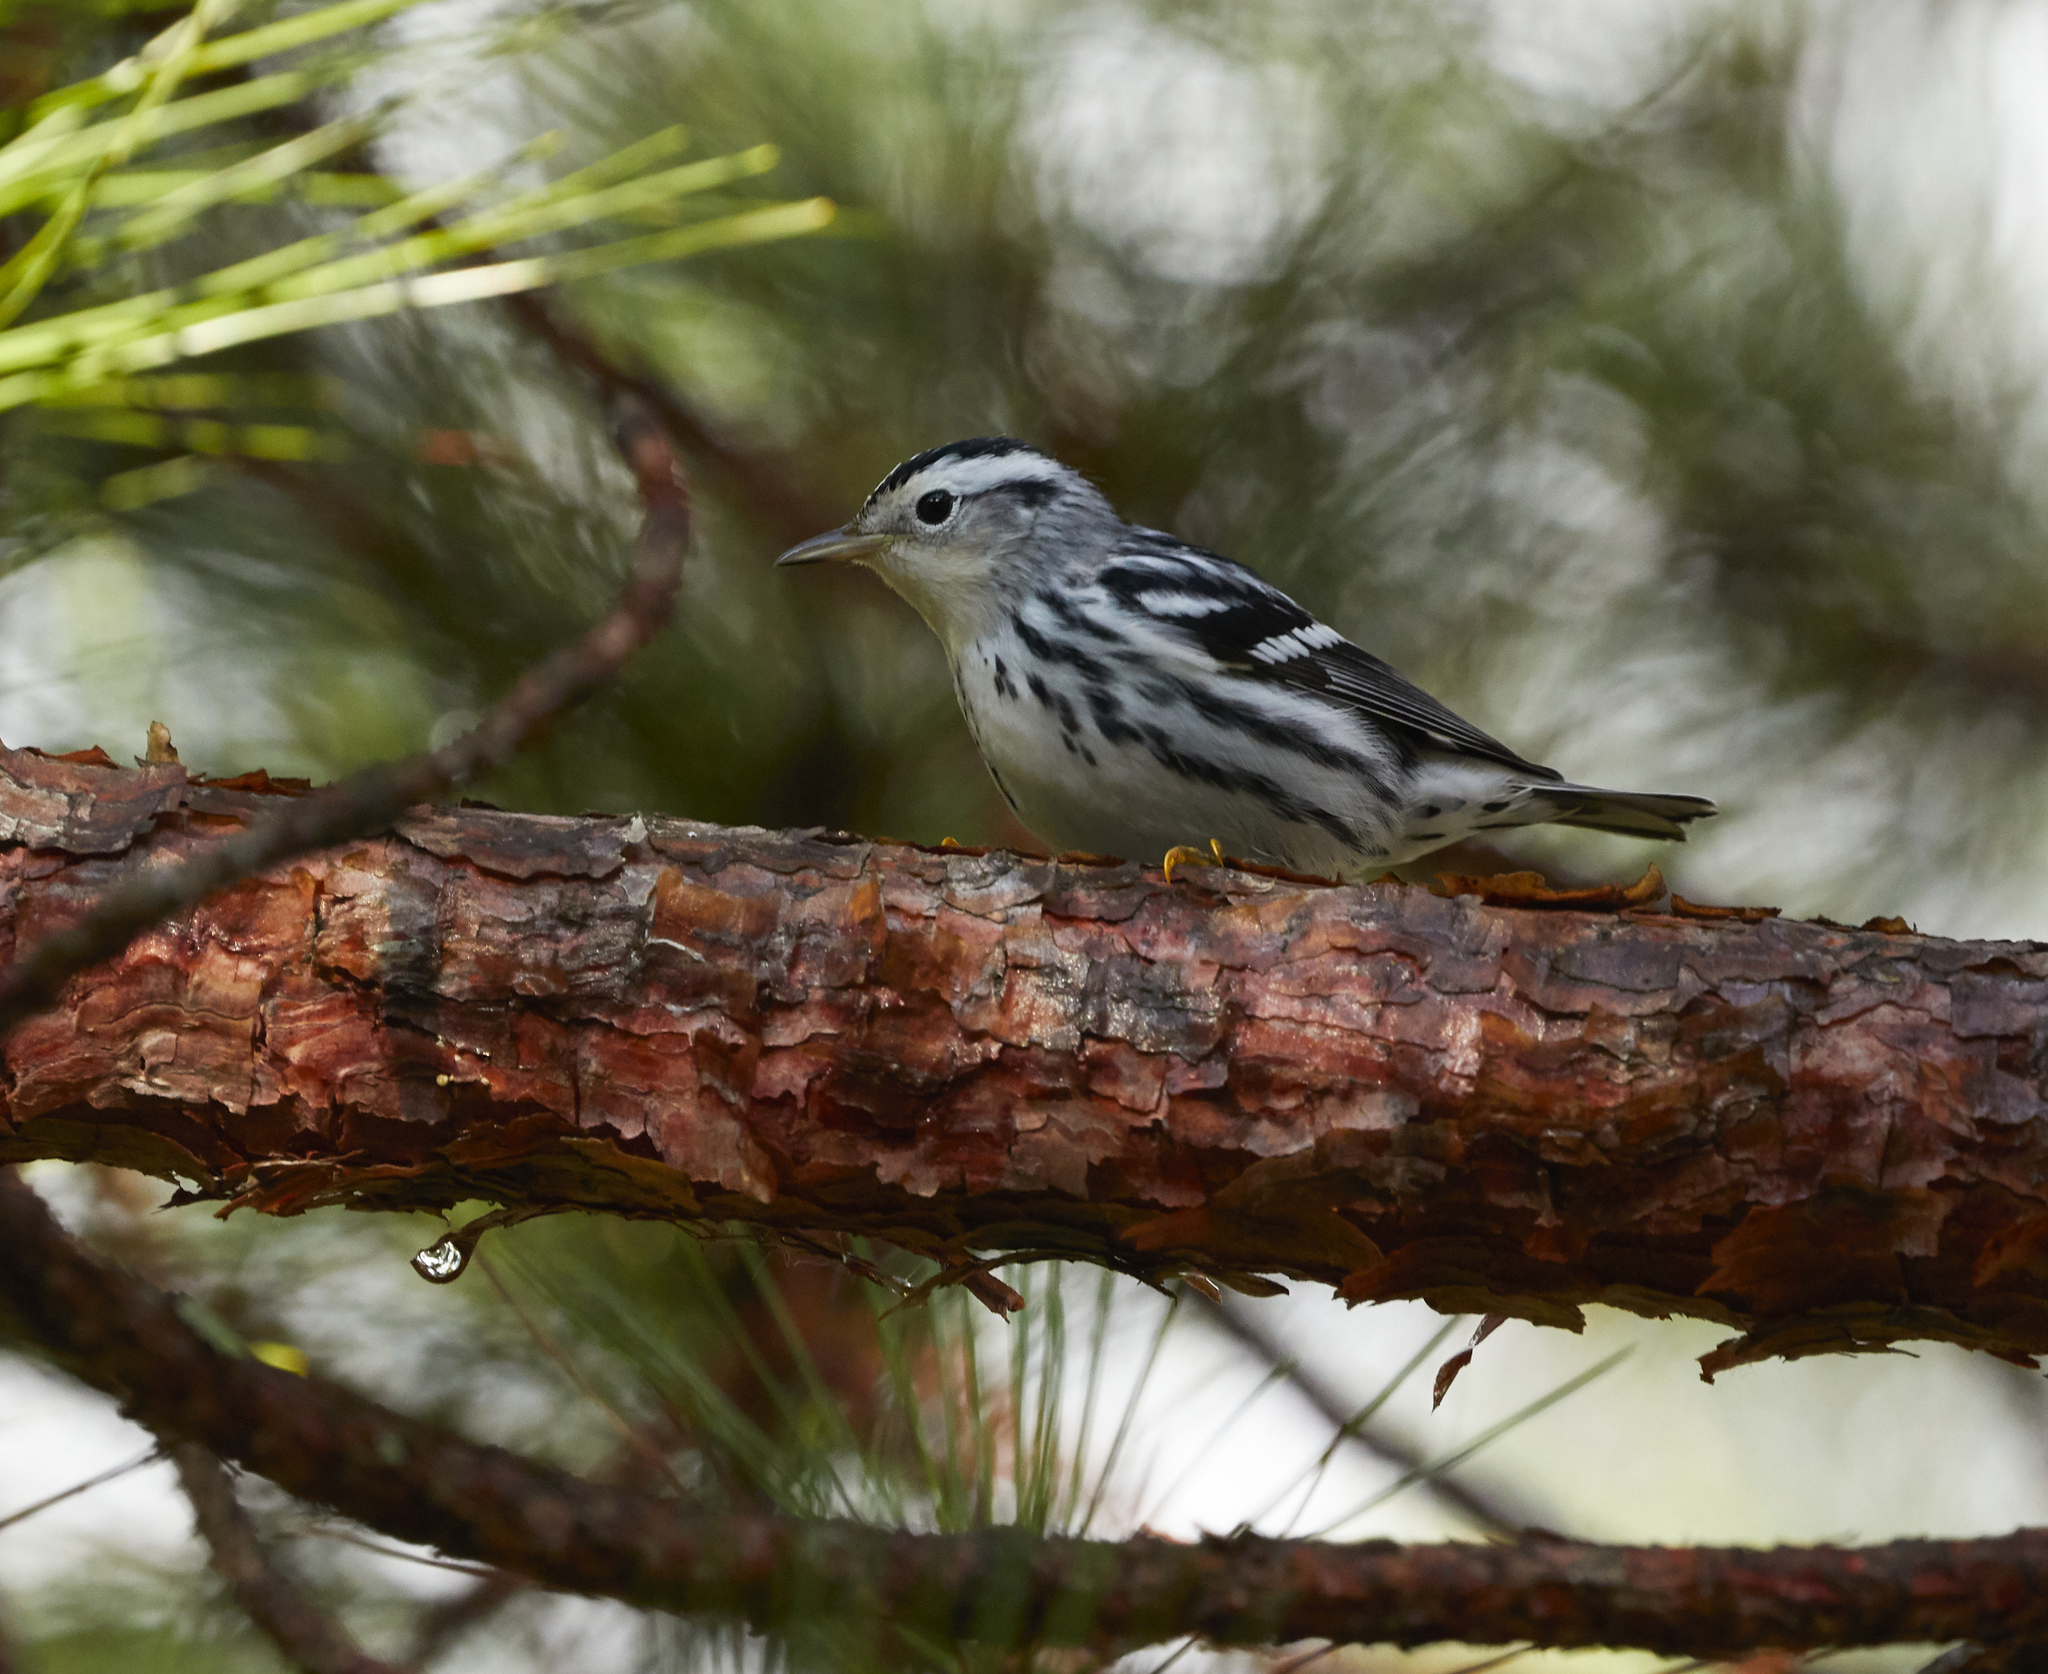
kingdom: Animalia
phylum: Chordata
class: Aves
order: Passeriformes
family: Parulidae
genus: Mniotilta
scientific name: Mniotilta varia
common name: Black-and-white warbler
